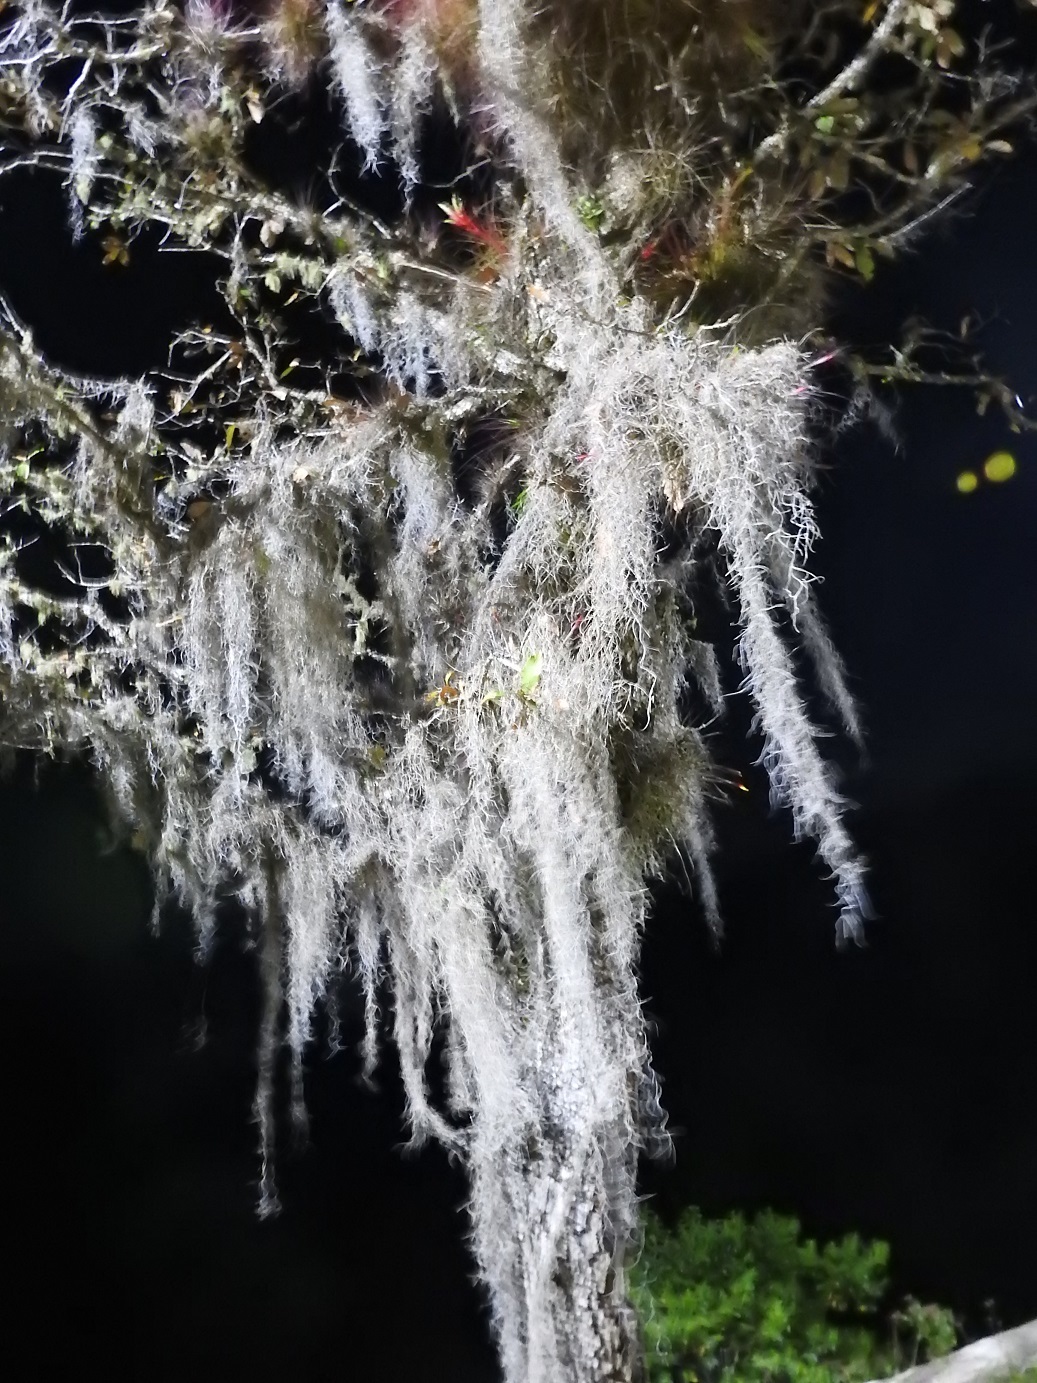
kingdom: Plantae
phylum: Tracheophyta
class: Liliopsida
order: Poales
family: Bromeliaceae
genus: Tillandsia
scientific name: Tillandsia usneoides
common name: Spanish moss
